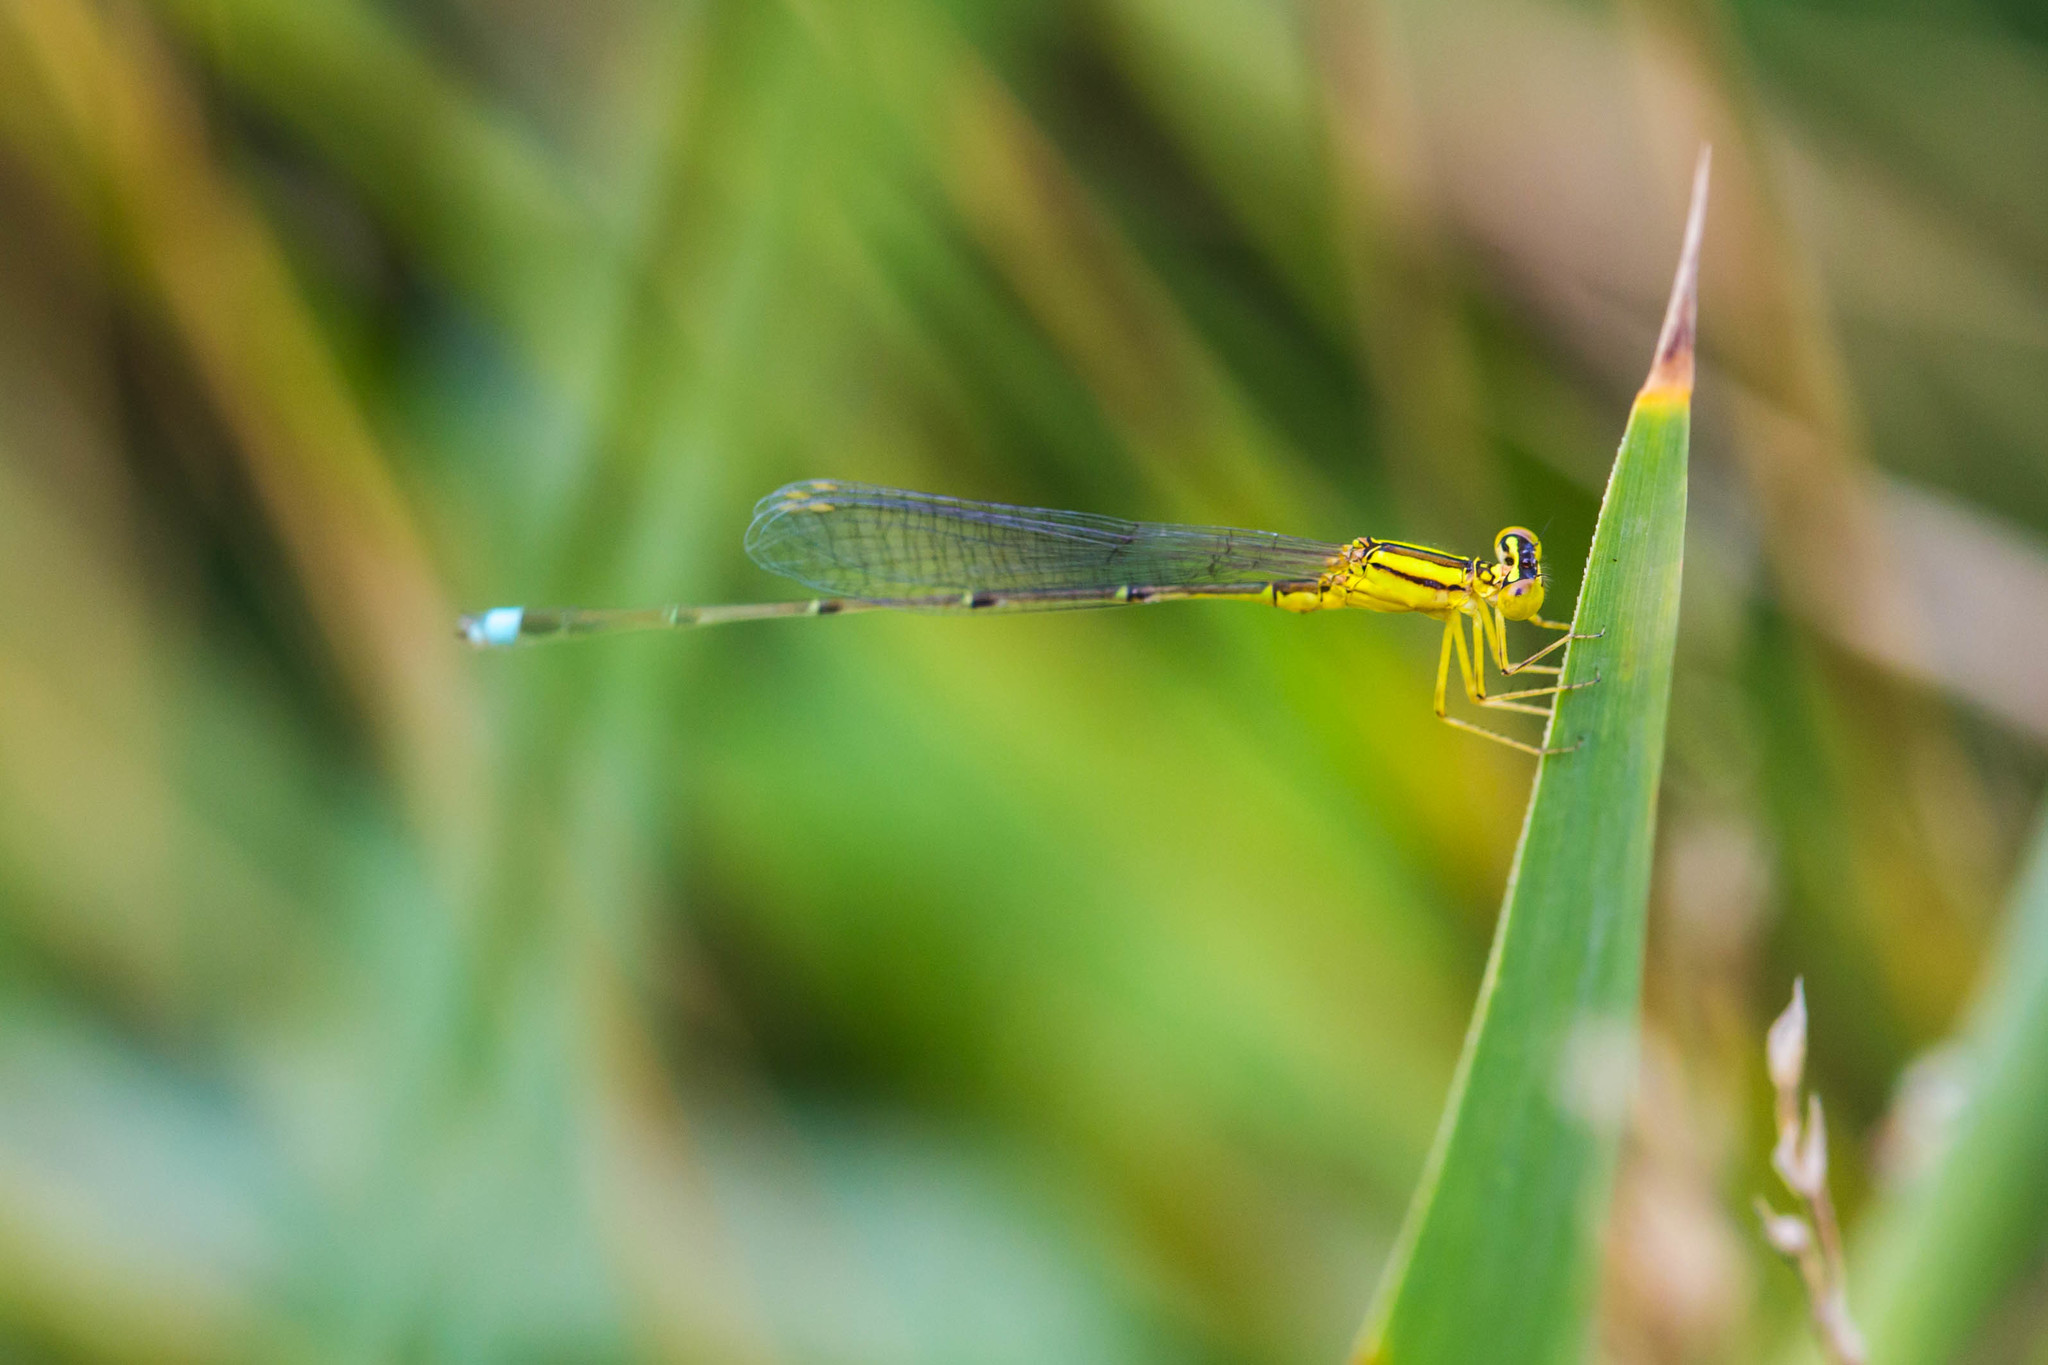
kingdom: Animalia
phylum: Arthropoda
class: Insecta
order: Odonata
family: Coenagrionidae
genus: Enallagma
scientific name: Enallagma vesperum
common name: Vesper bluet
